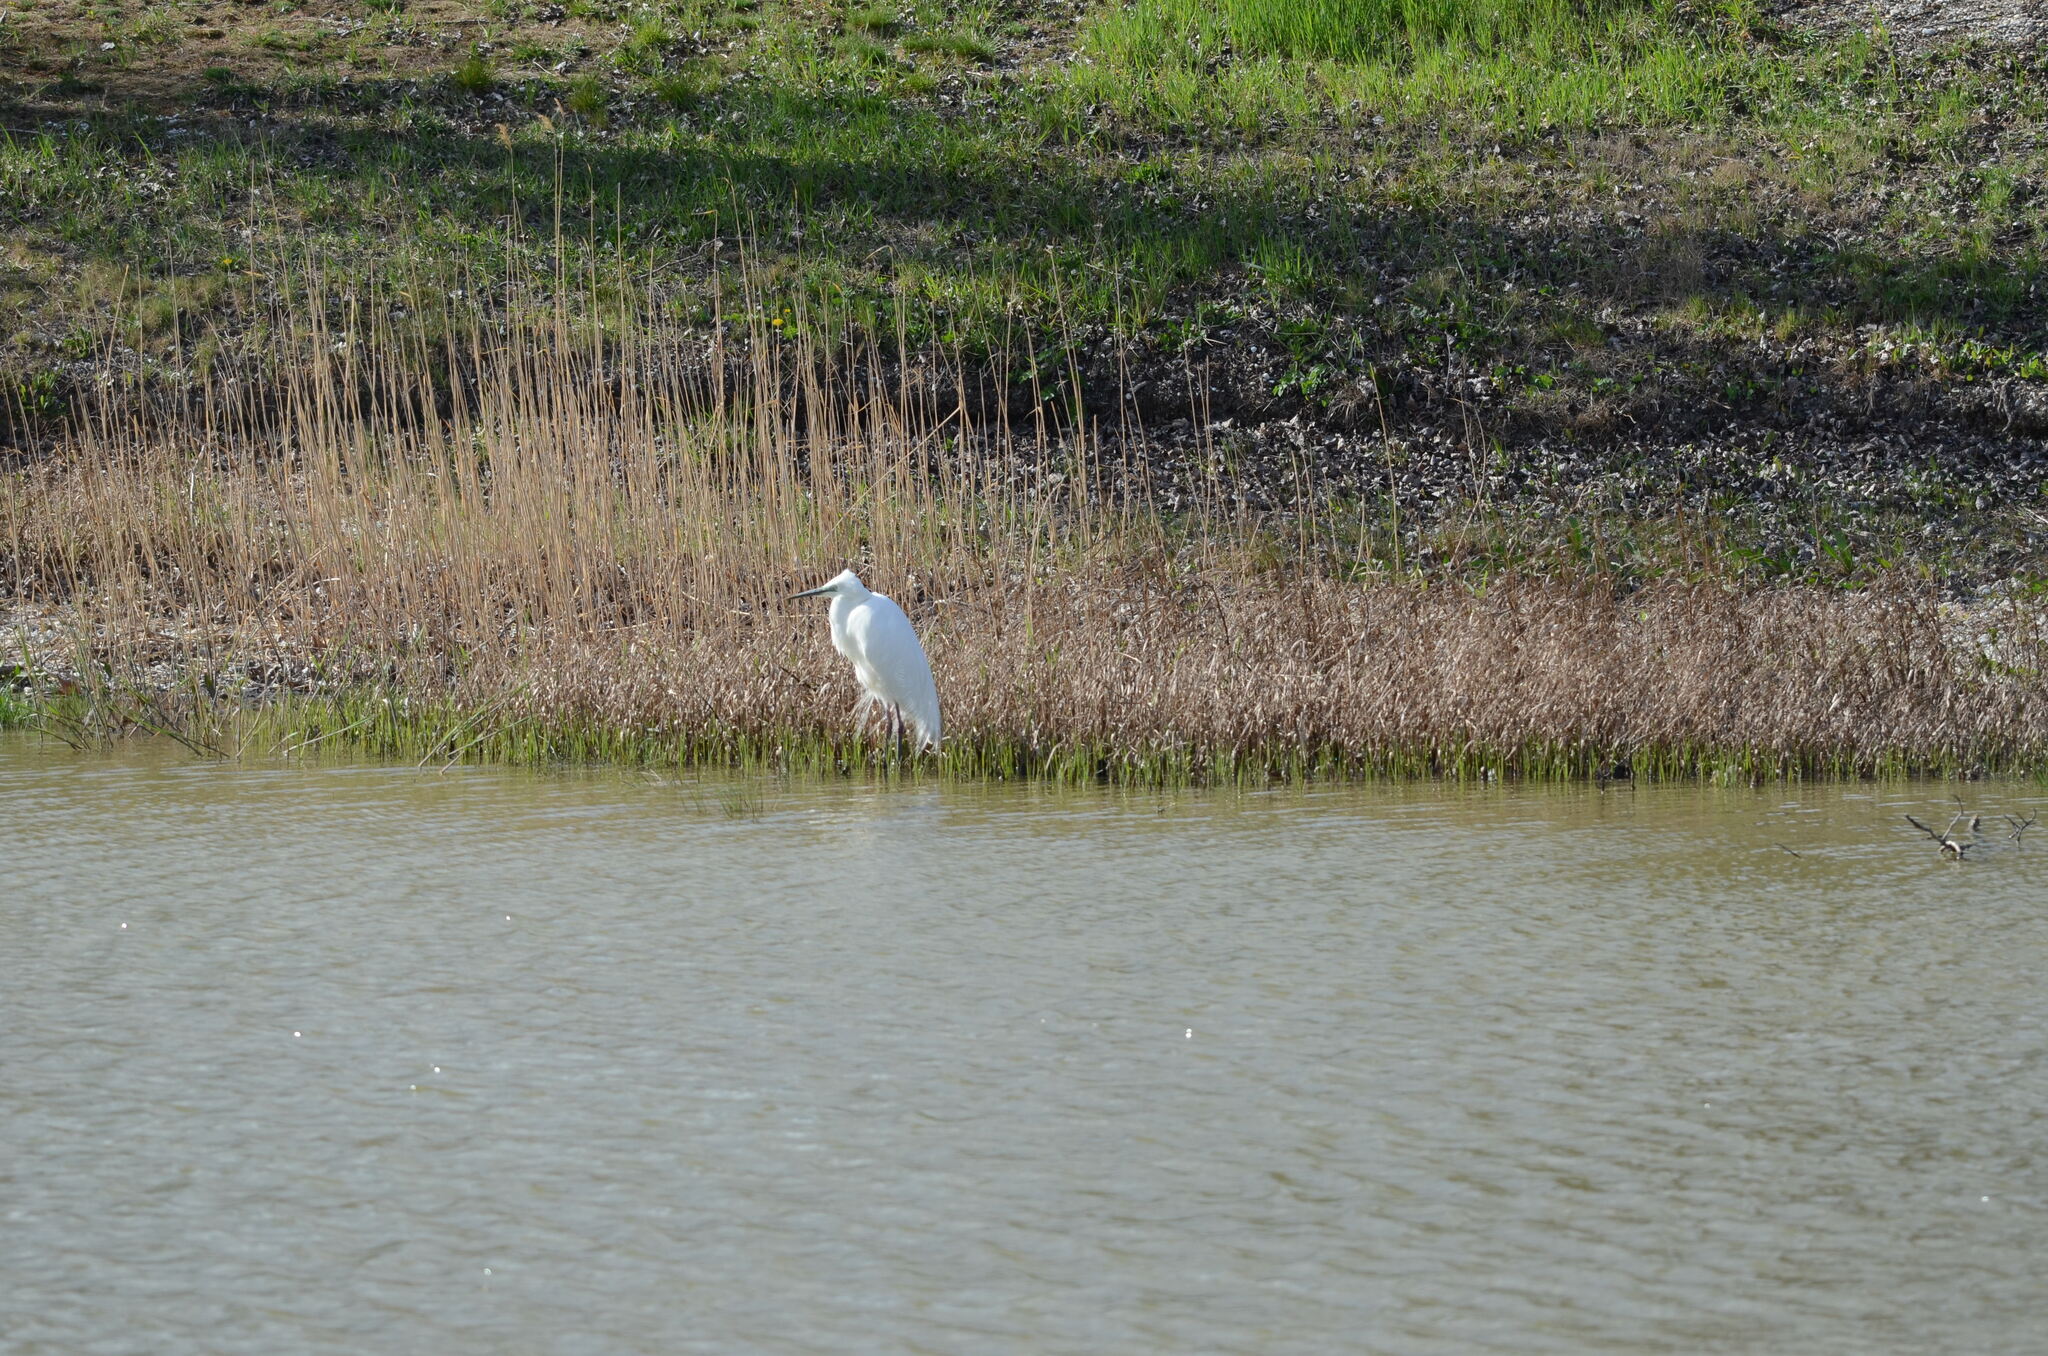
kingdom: Animalia
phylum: Chordata
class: Aves
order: Pelecaniformes
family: Ardeidae
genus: Ardea
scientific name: Ardea alba
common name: Great egret
